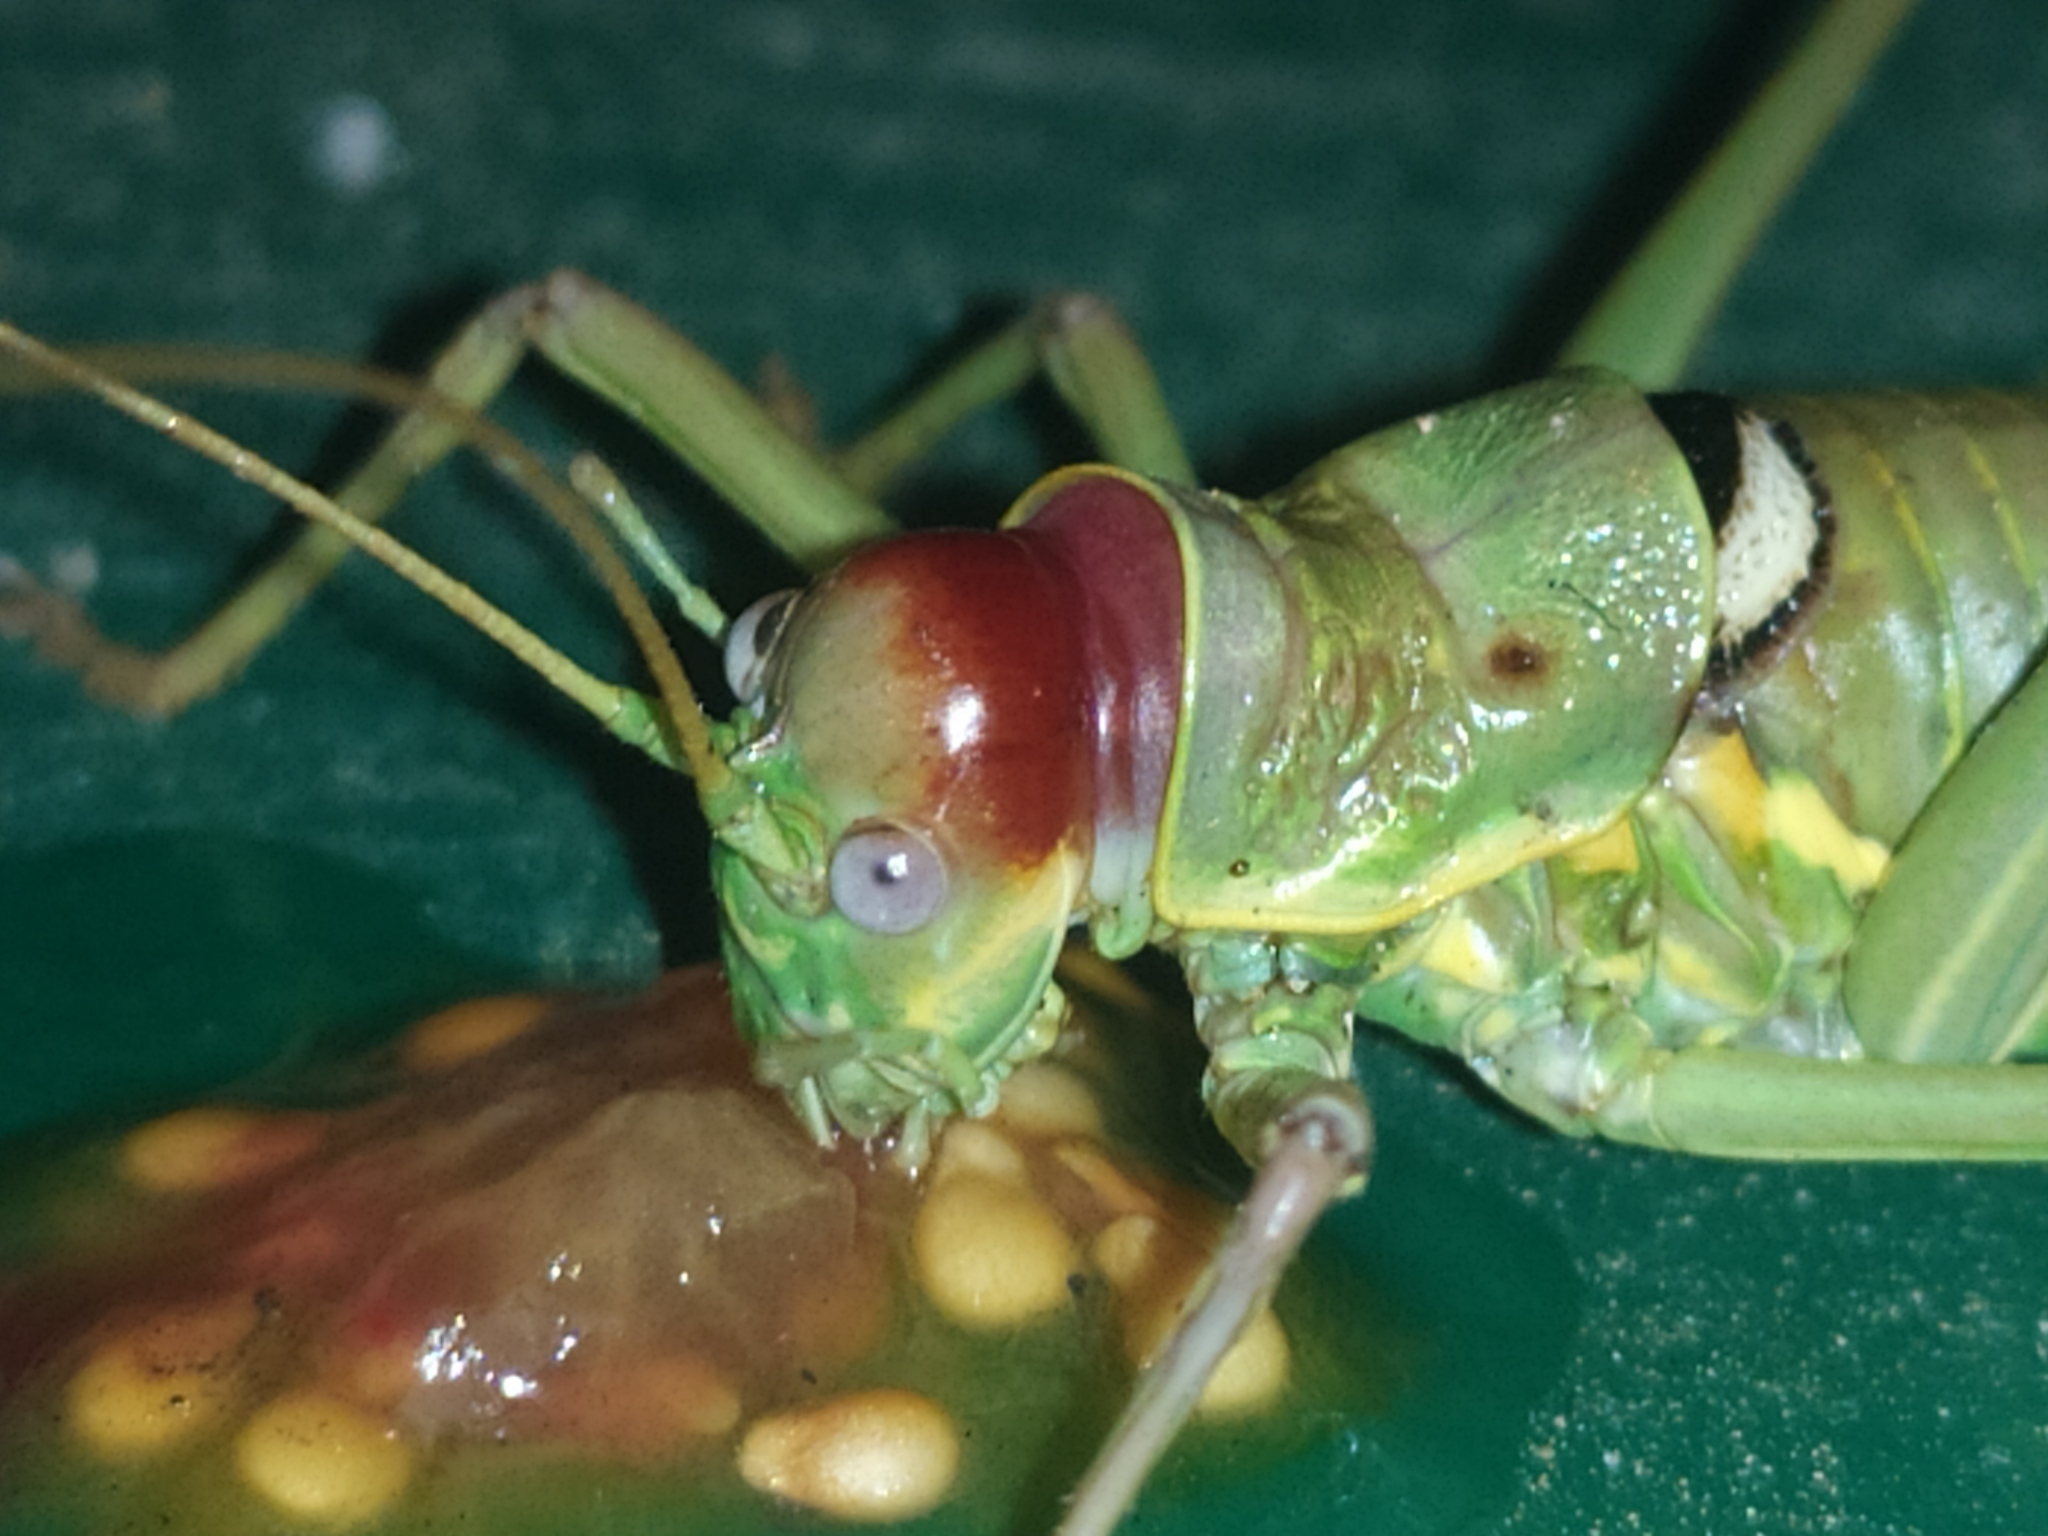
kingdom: Animalia
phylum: Arthropoda
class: Insecta
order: Orthoptera
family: Tettigoniidae
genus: Dinarippiger
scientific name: Dinarippiger discoidalis
